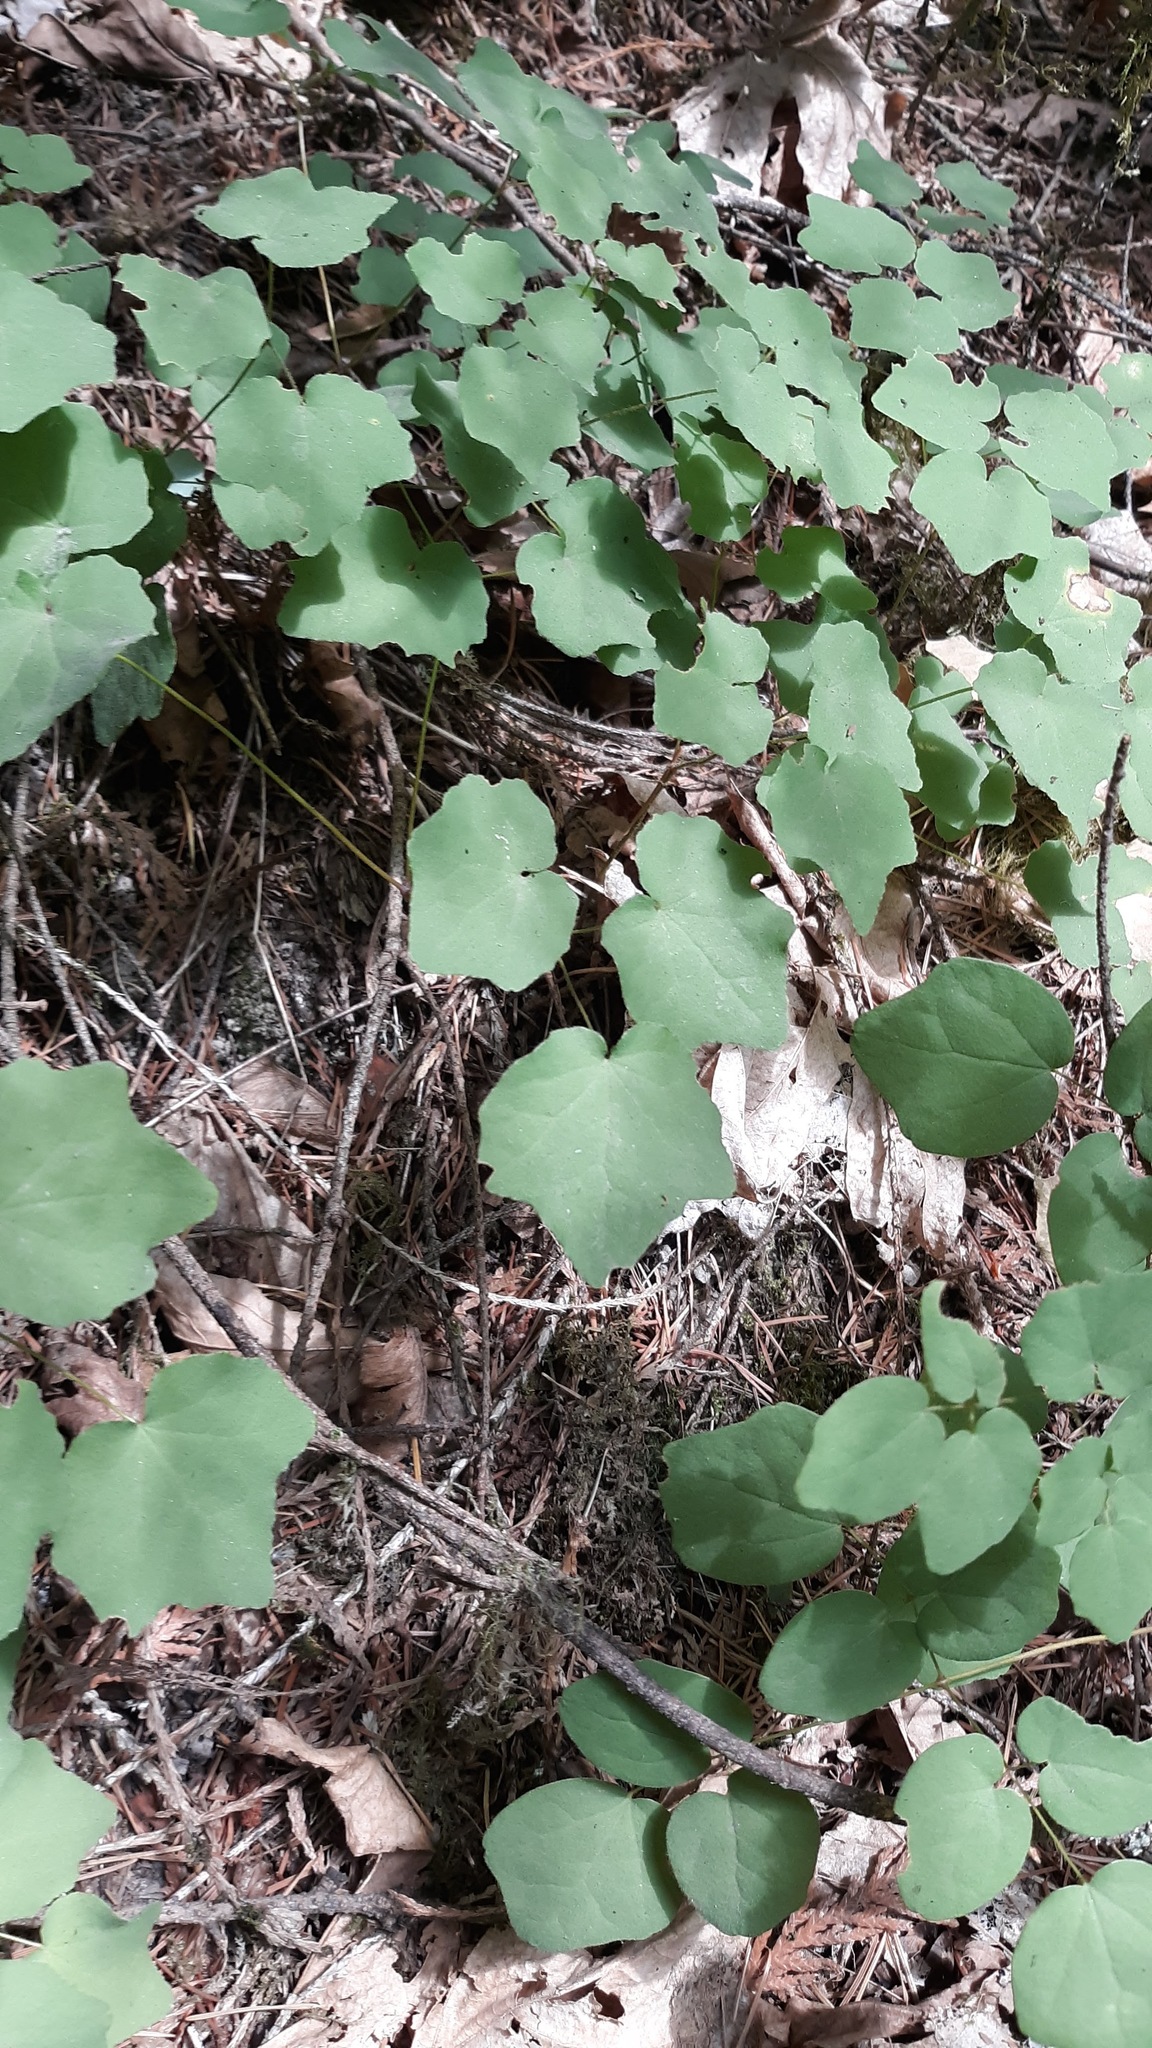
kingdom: Plantae
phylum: Tracheophyta
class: Magnoliopsida
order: Ranunculales
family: Berberidaceae
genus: Vancouveria
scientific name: Vancouveria hexandra
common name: Northern inside-out-flower
